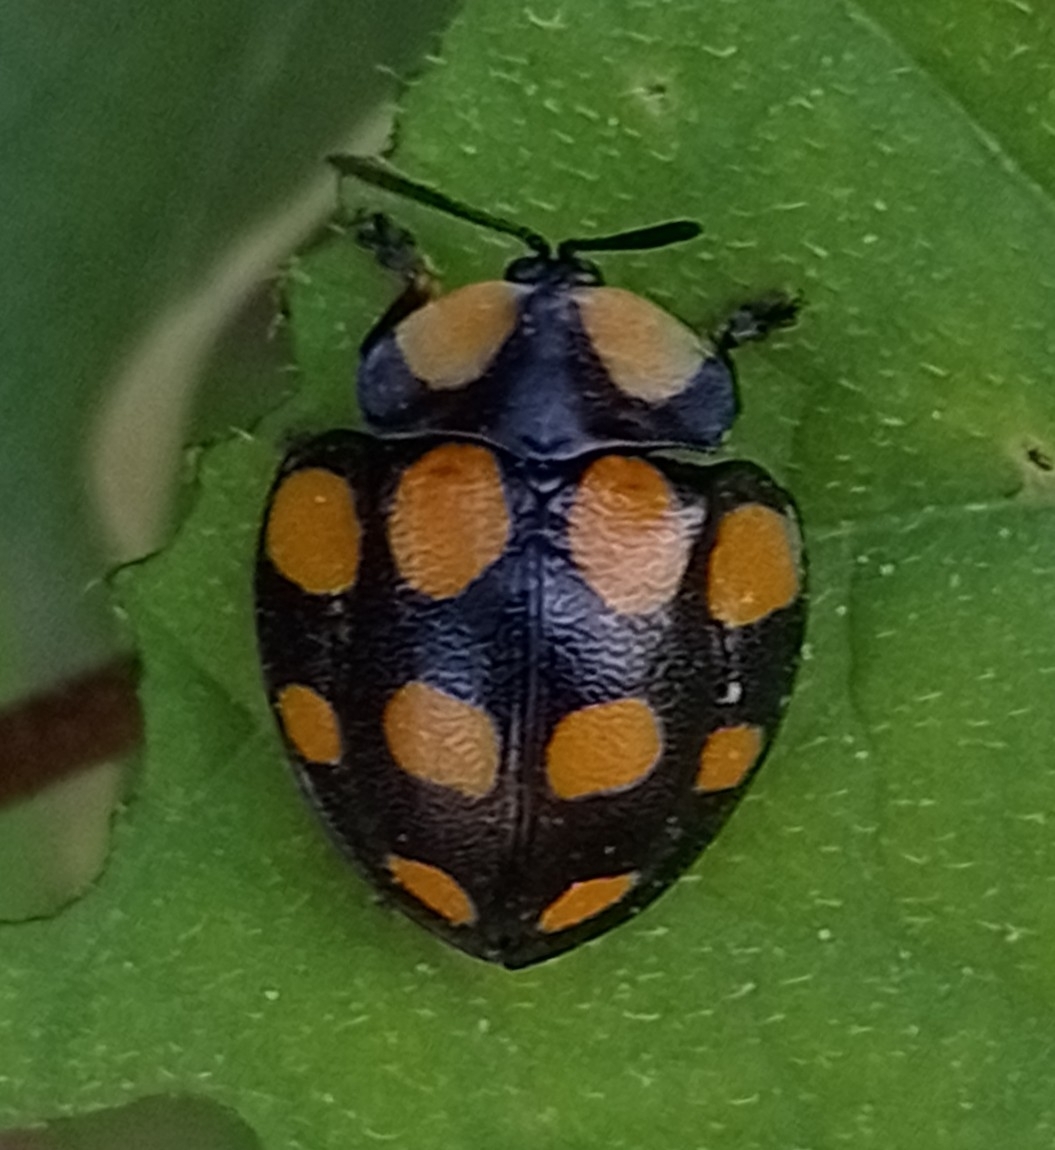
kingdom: Animalia
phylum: Arthropoda
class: Insecta
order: Coleoptera
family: Chrysomelidae
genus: Botanochara
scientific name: Botanochara decempustulata
